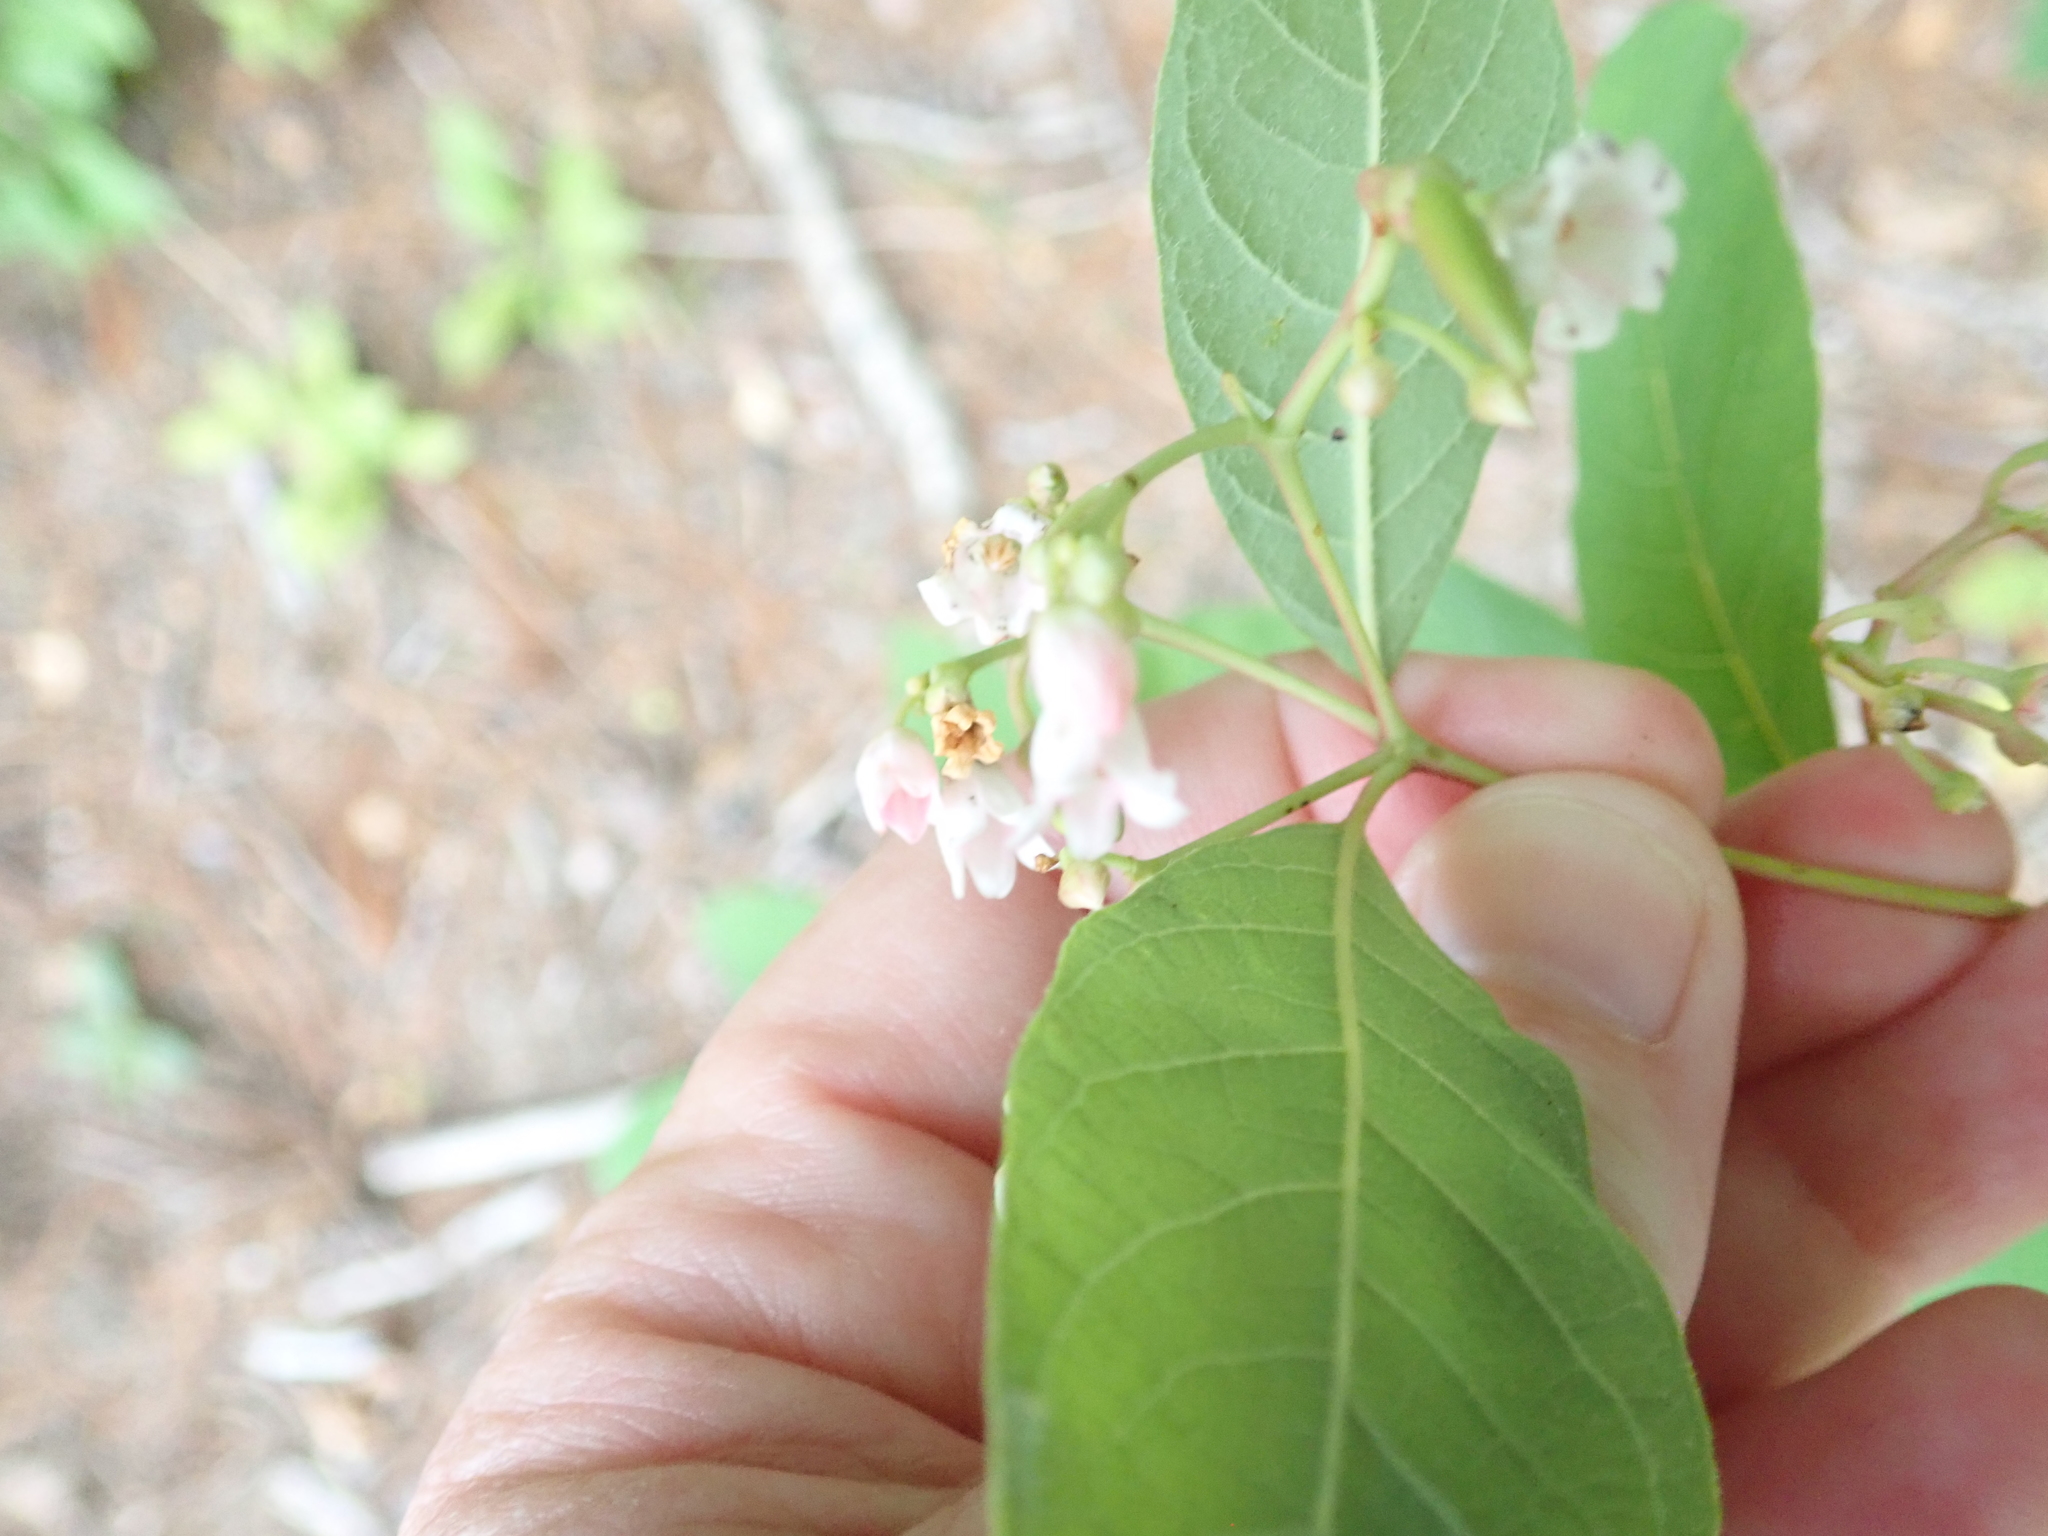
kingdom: Plantae
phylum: Tracheophyta
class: Magnoliopsida
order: Gentianales
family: Apocynaceae
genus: Apocynum
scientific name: Apocynum androsaemifolium
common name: Spreading dogbane
